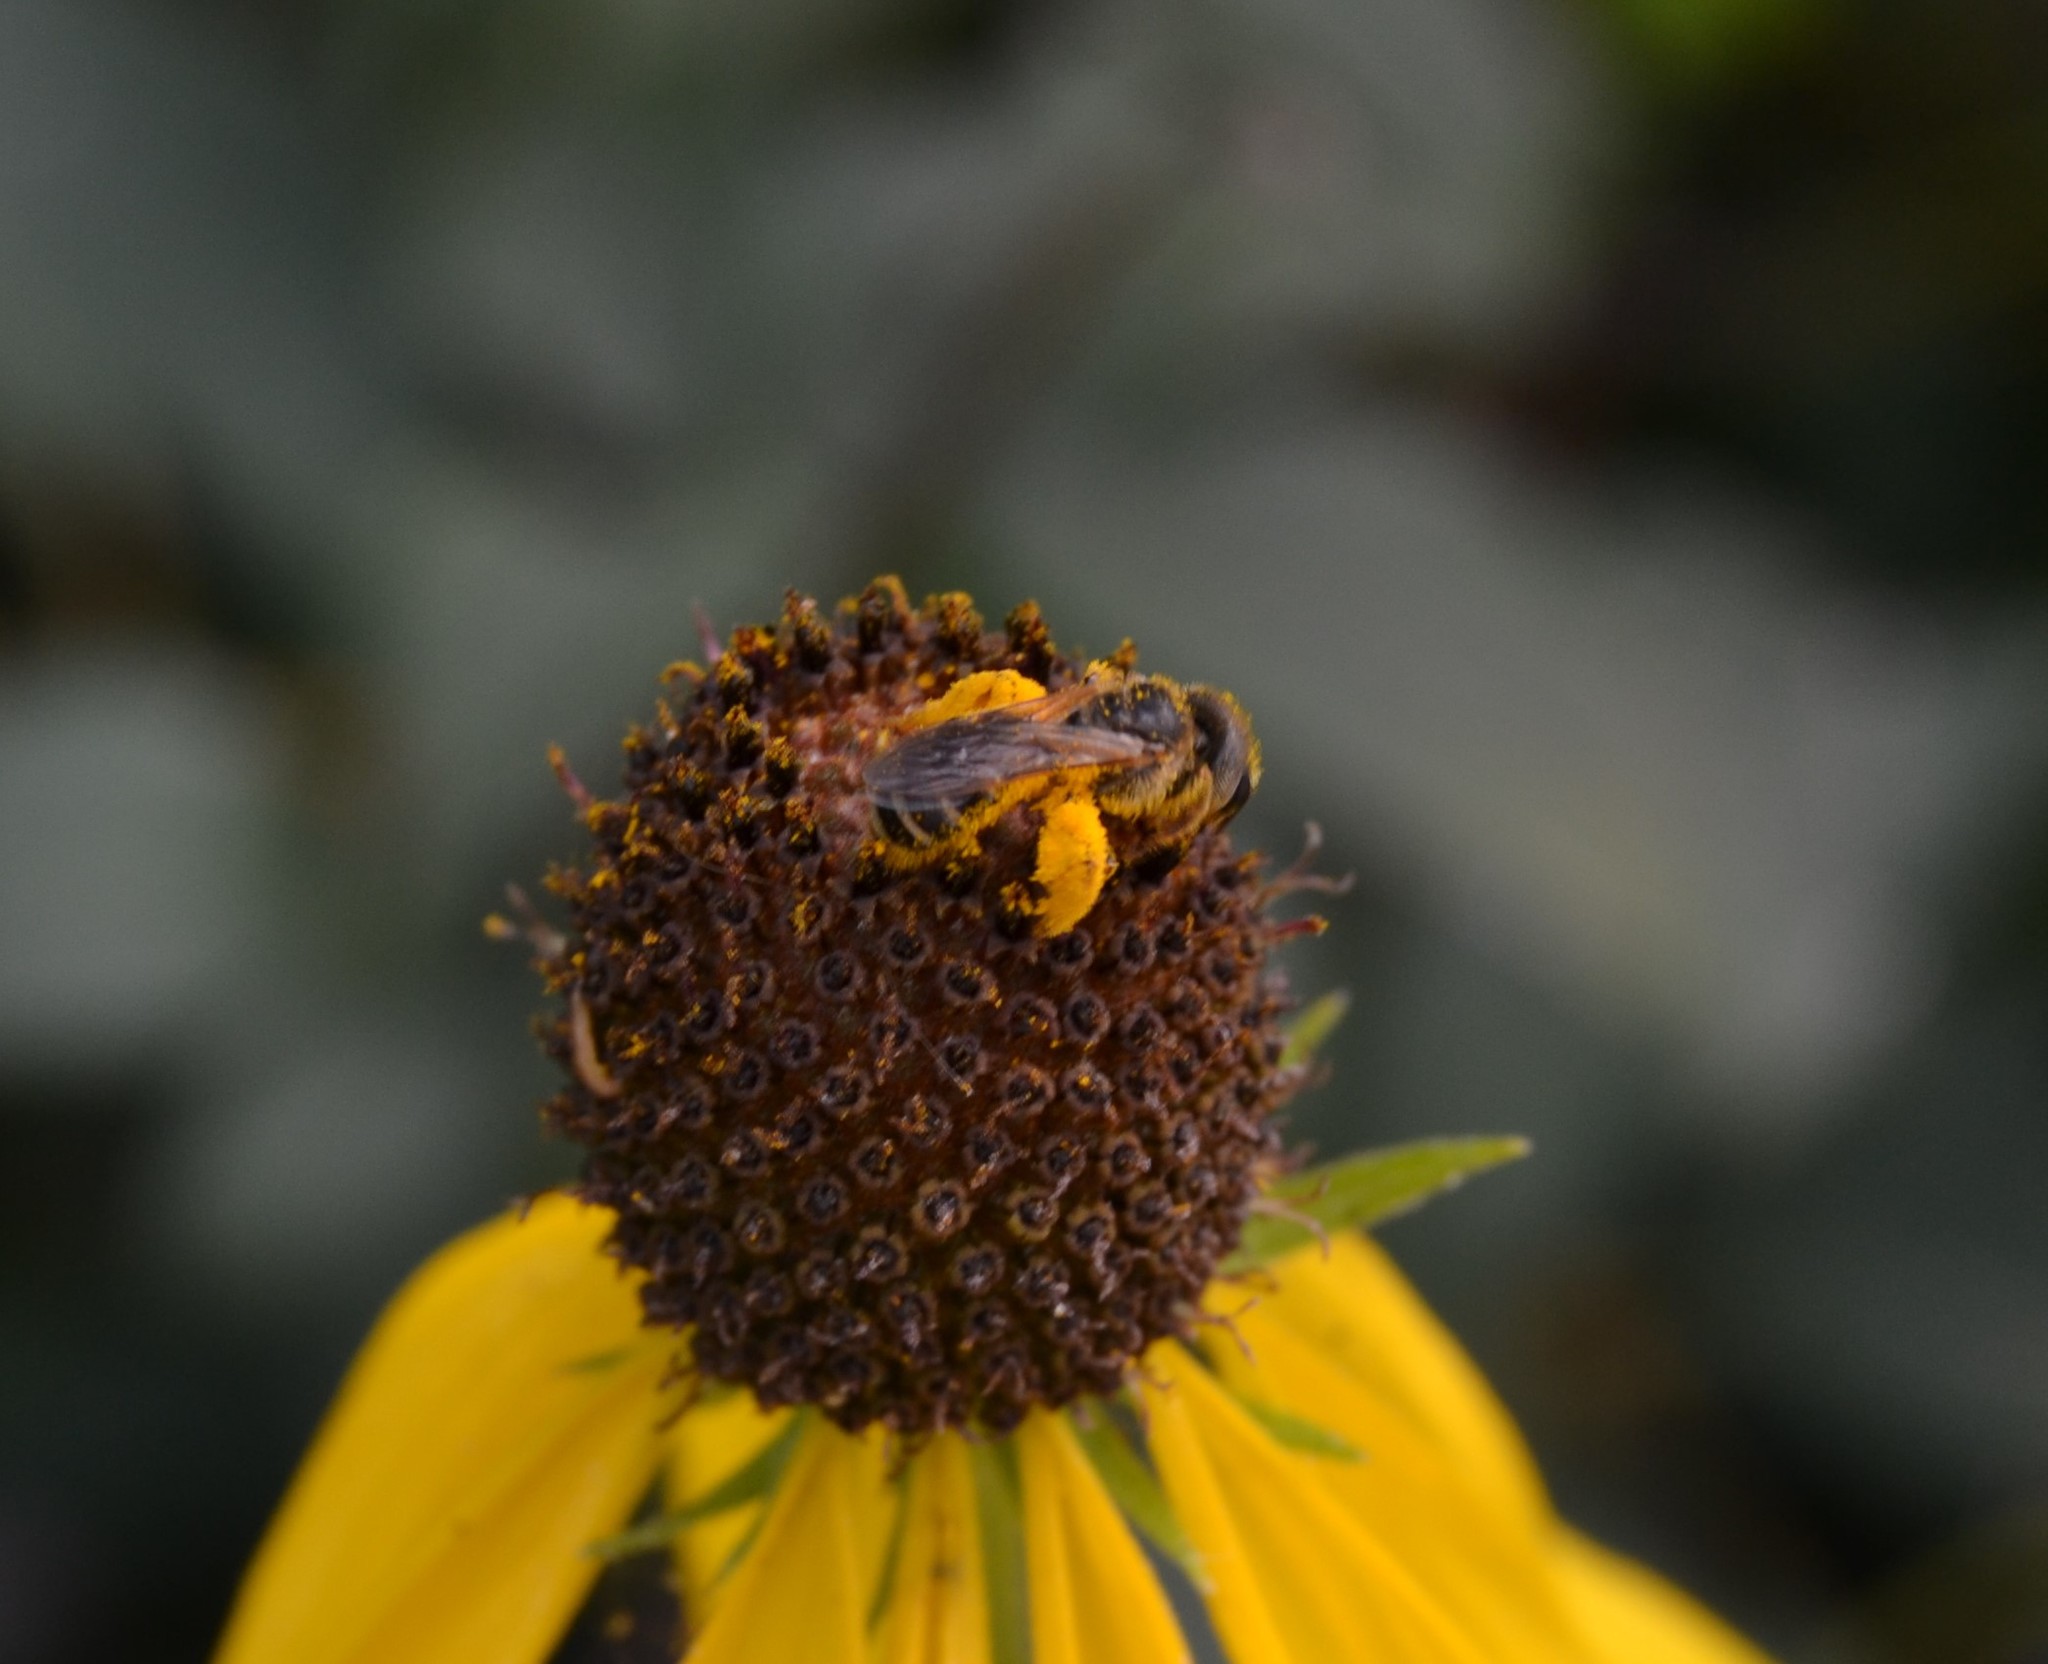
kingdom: Animalia
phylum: Arthropoda
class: Insecta
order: Hymenoptera
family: Halictidae
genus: Halictus
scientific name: Halictus ligatus
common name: Ligated furrow bee
